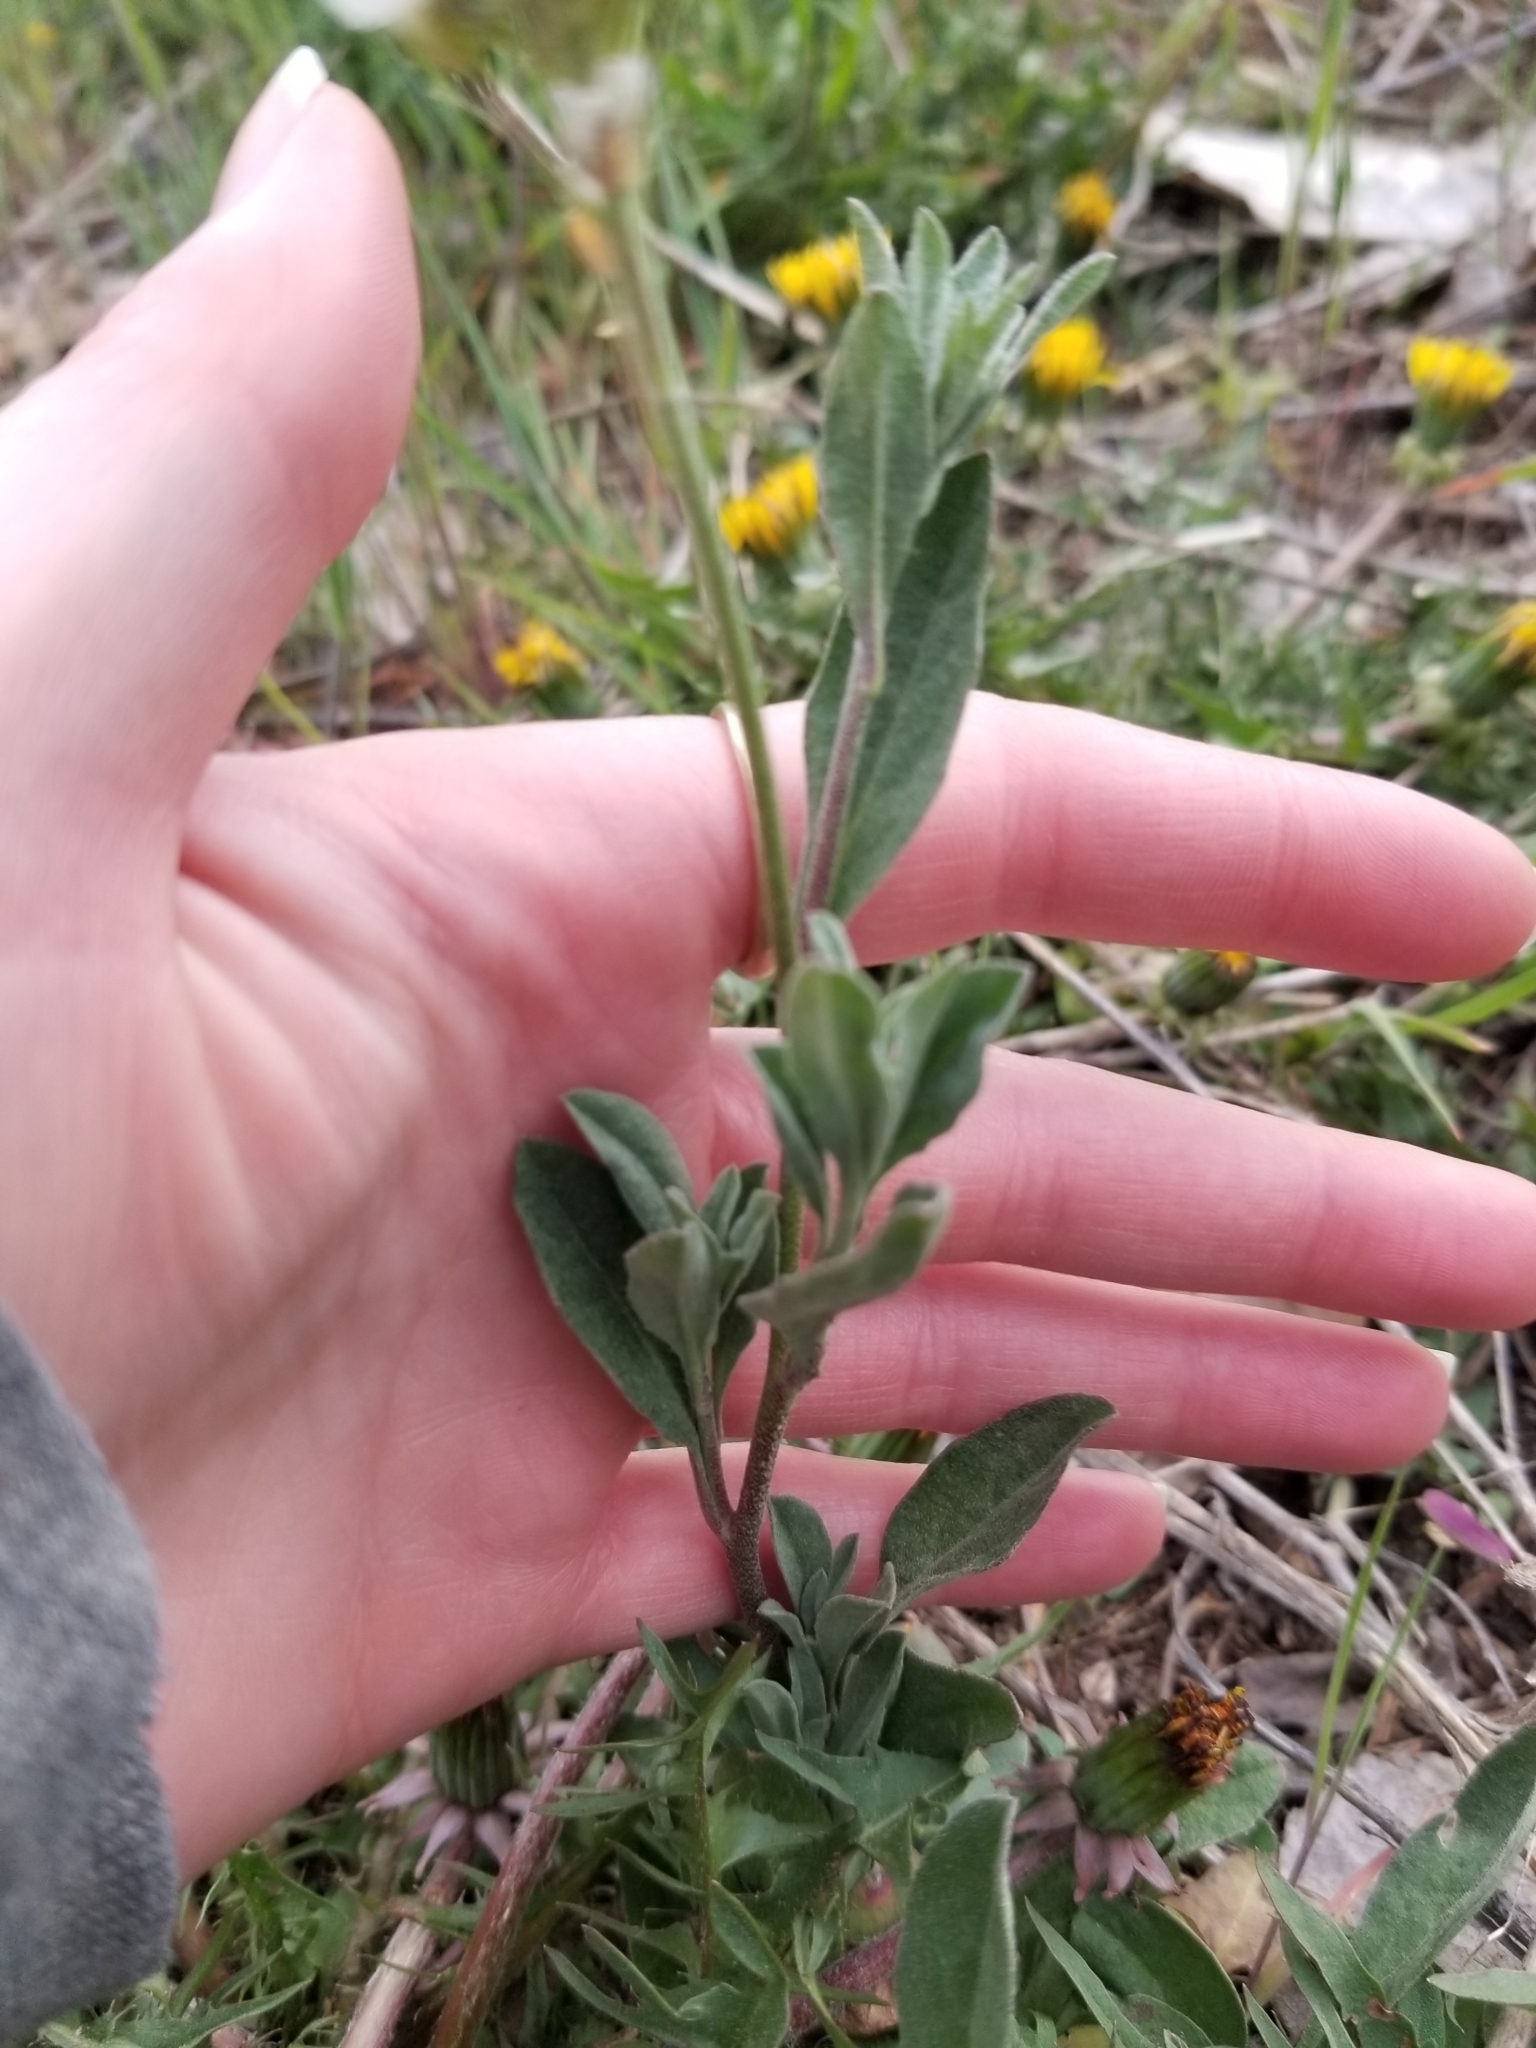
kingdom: Plantae
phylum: Tracheophyta
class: Magnoliopsida
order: Brassicales
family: Brassicaceae
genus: Berteroa
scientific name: Berteroa incana
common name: Hoary alison
